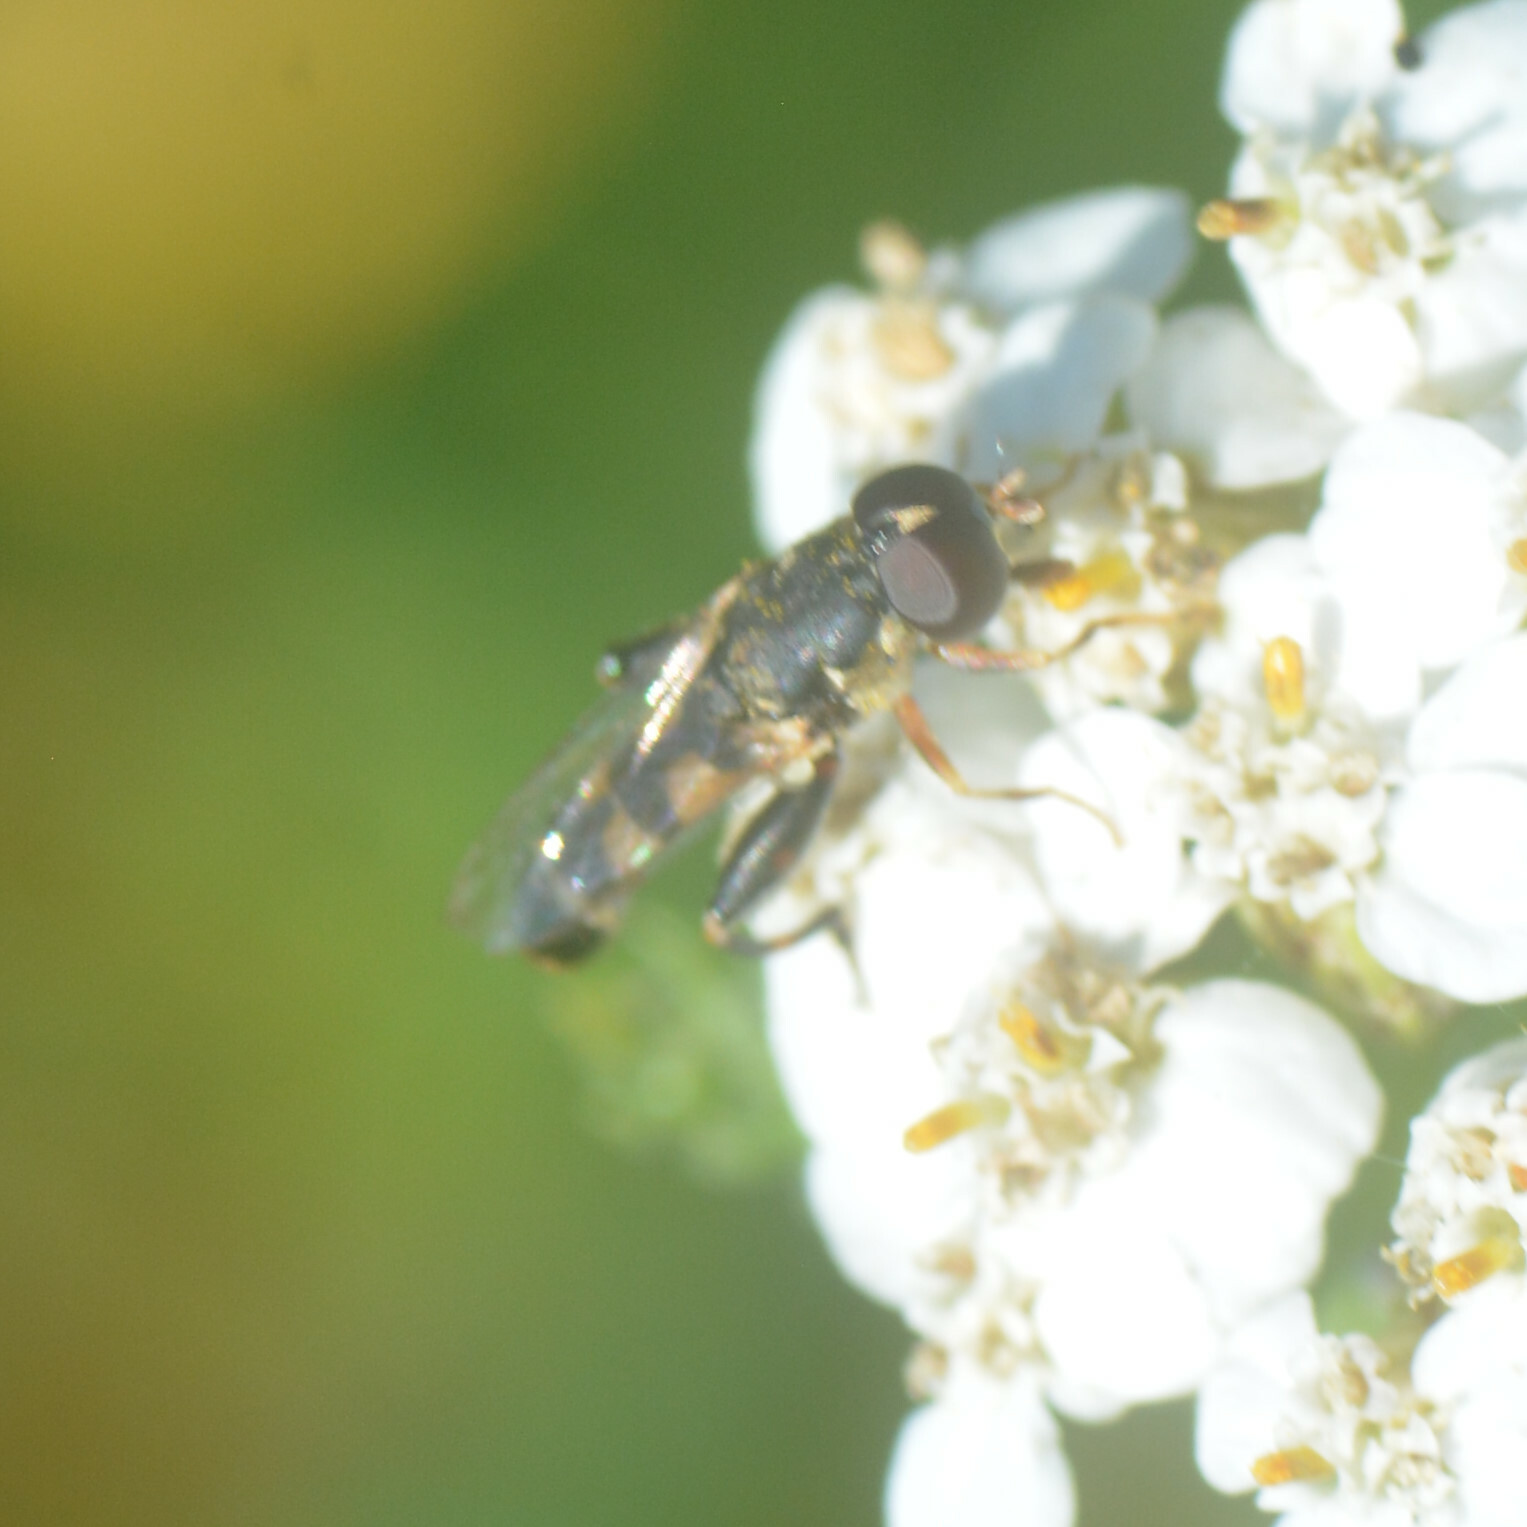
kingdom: Animalia
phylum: Arthropoda
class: Insecta
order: Diptera
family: Syrphidae
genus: Syritta
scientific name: Syritta pipiens
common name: Hover fly
